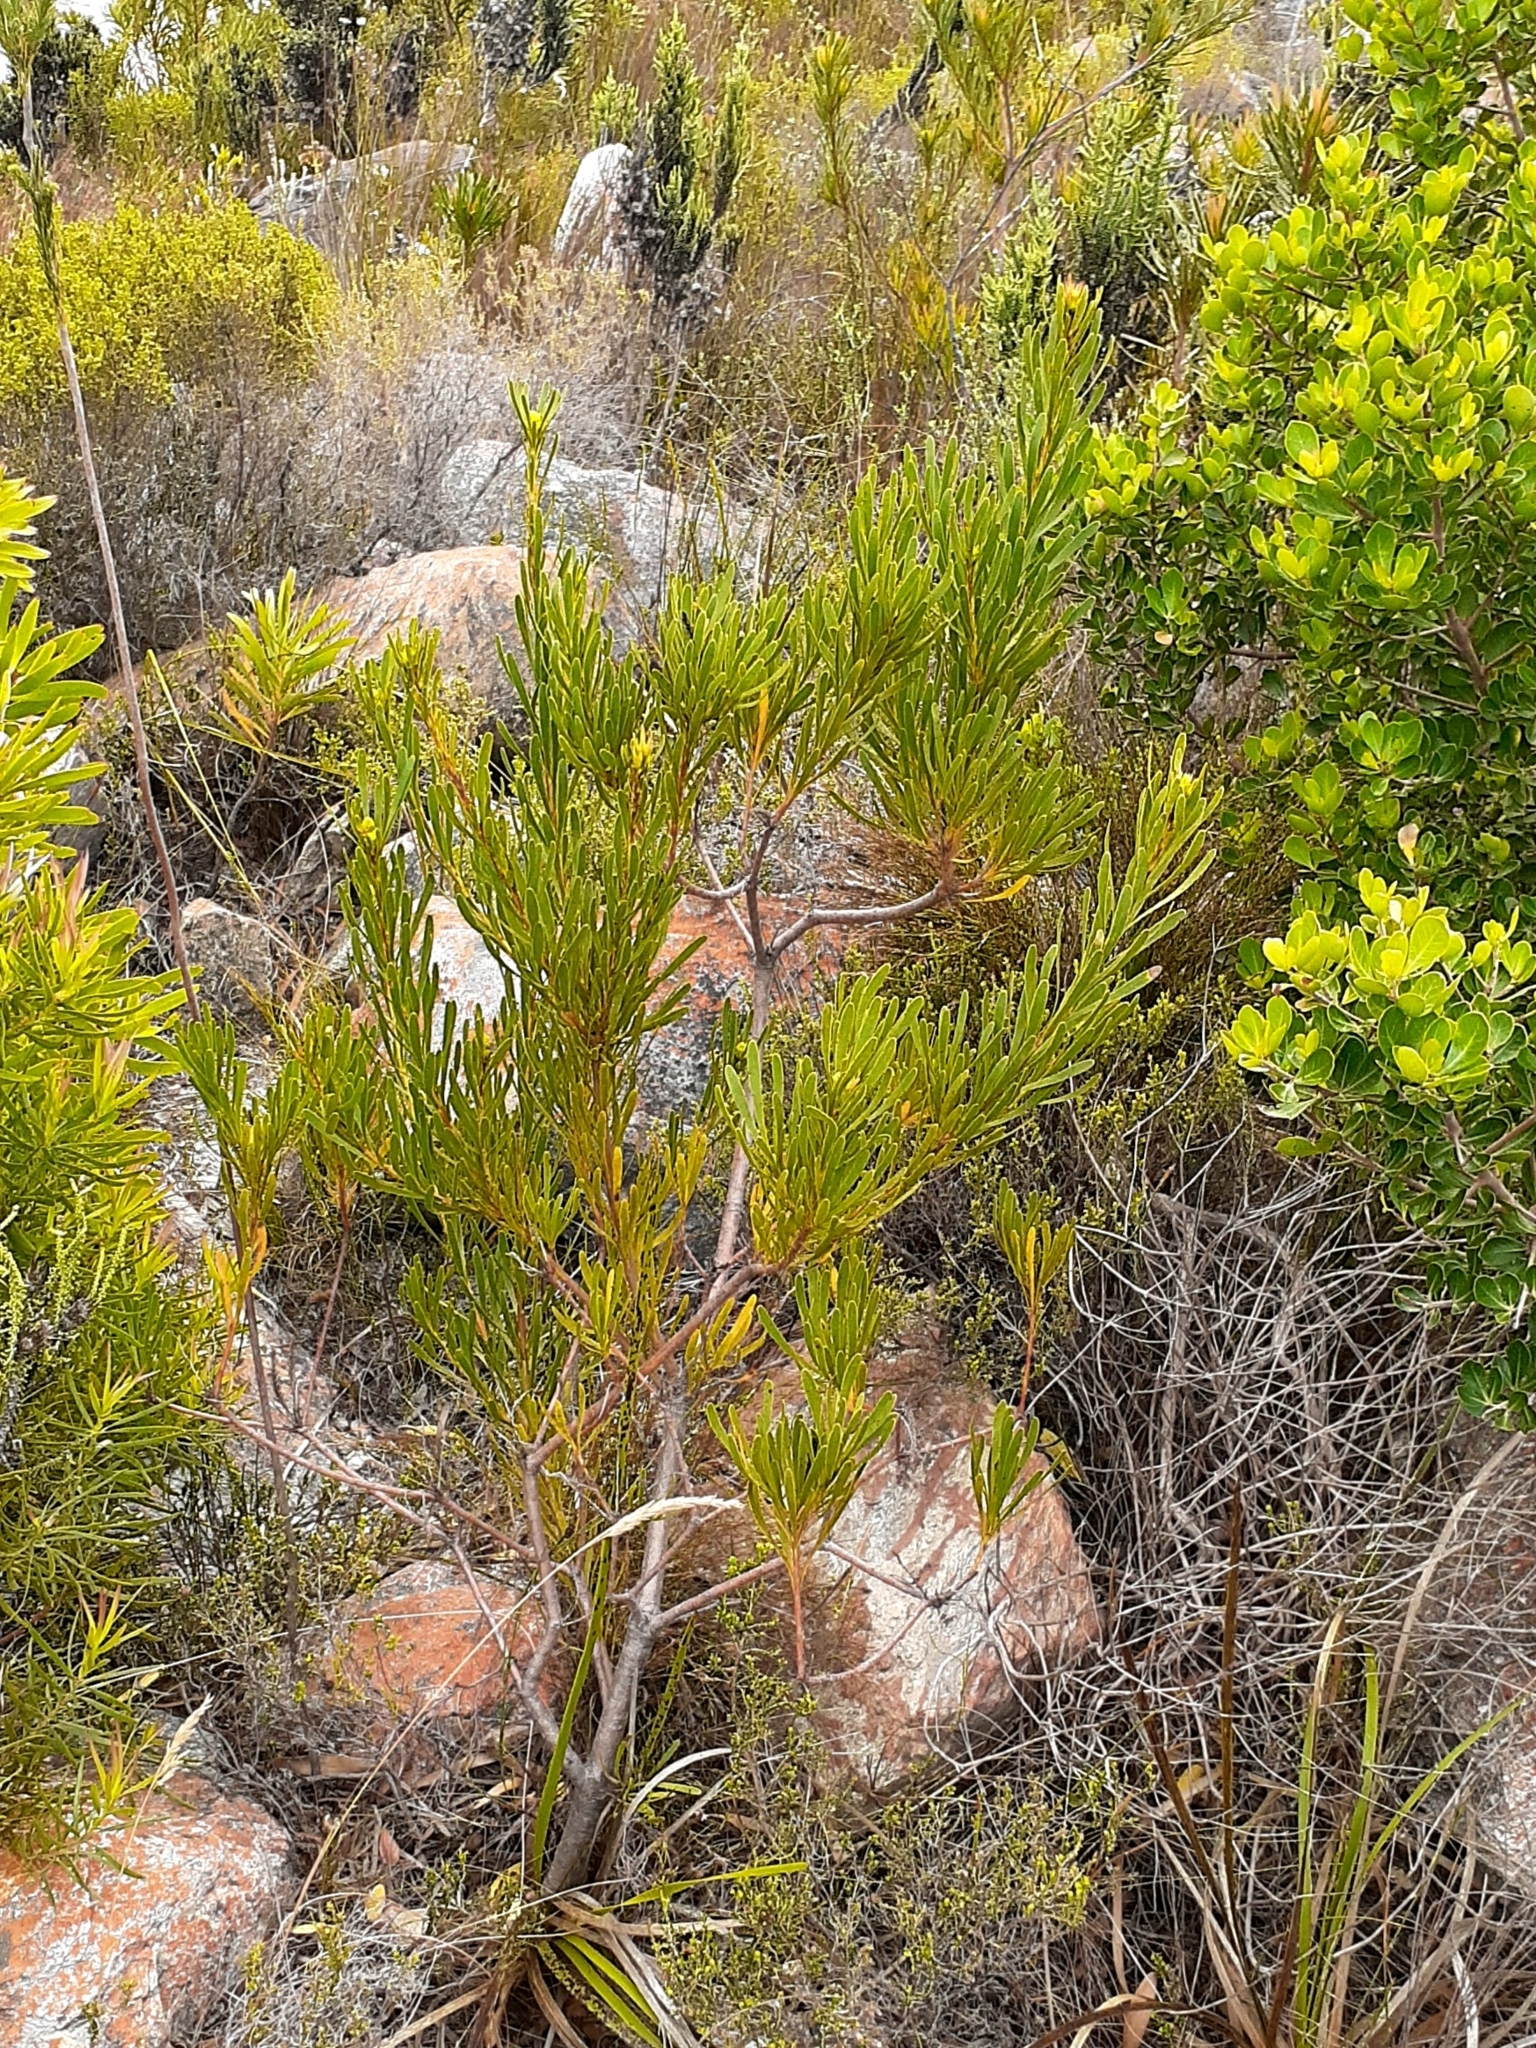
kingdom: Plantae
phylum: Tracheophyta
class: Magnoliopsida
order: Proteales
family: Proteaceae
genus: Aulax
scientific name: Aulax umbellata
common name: Broad-leaf featherbush
